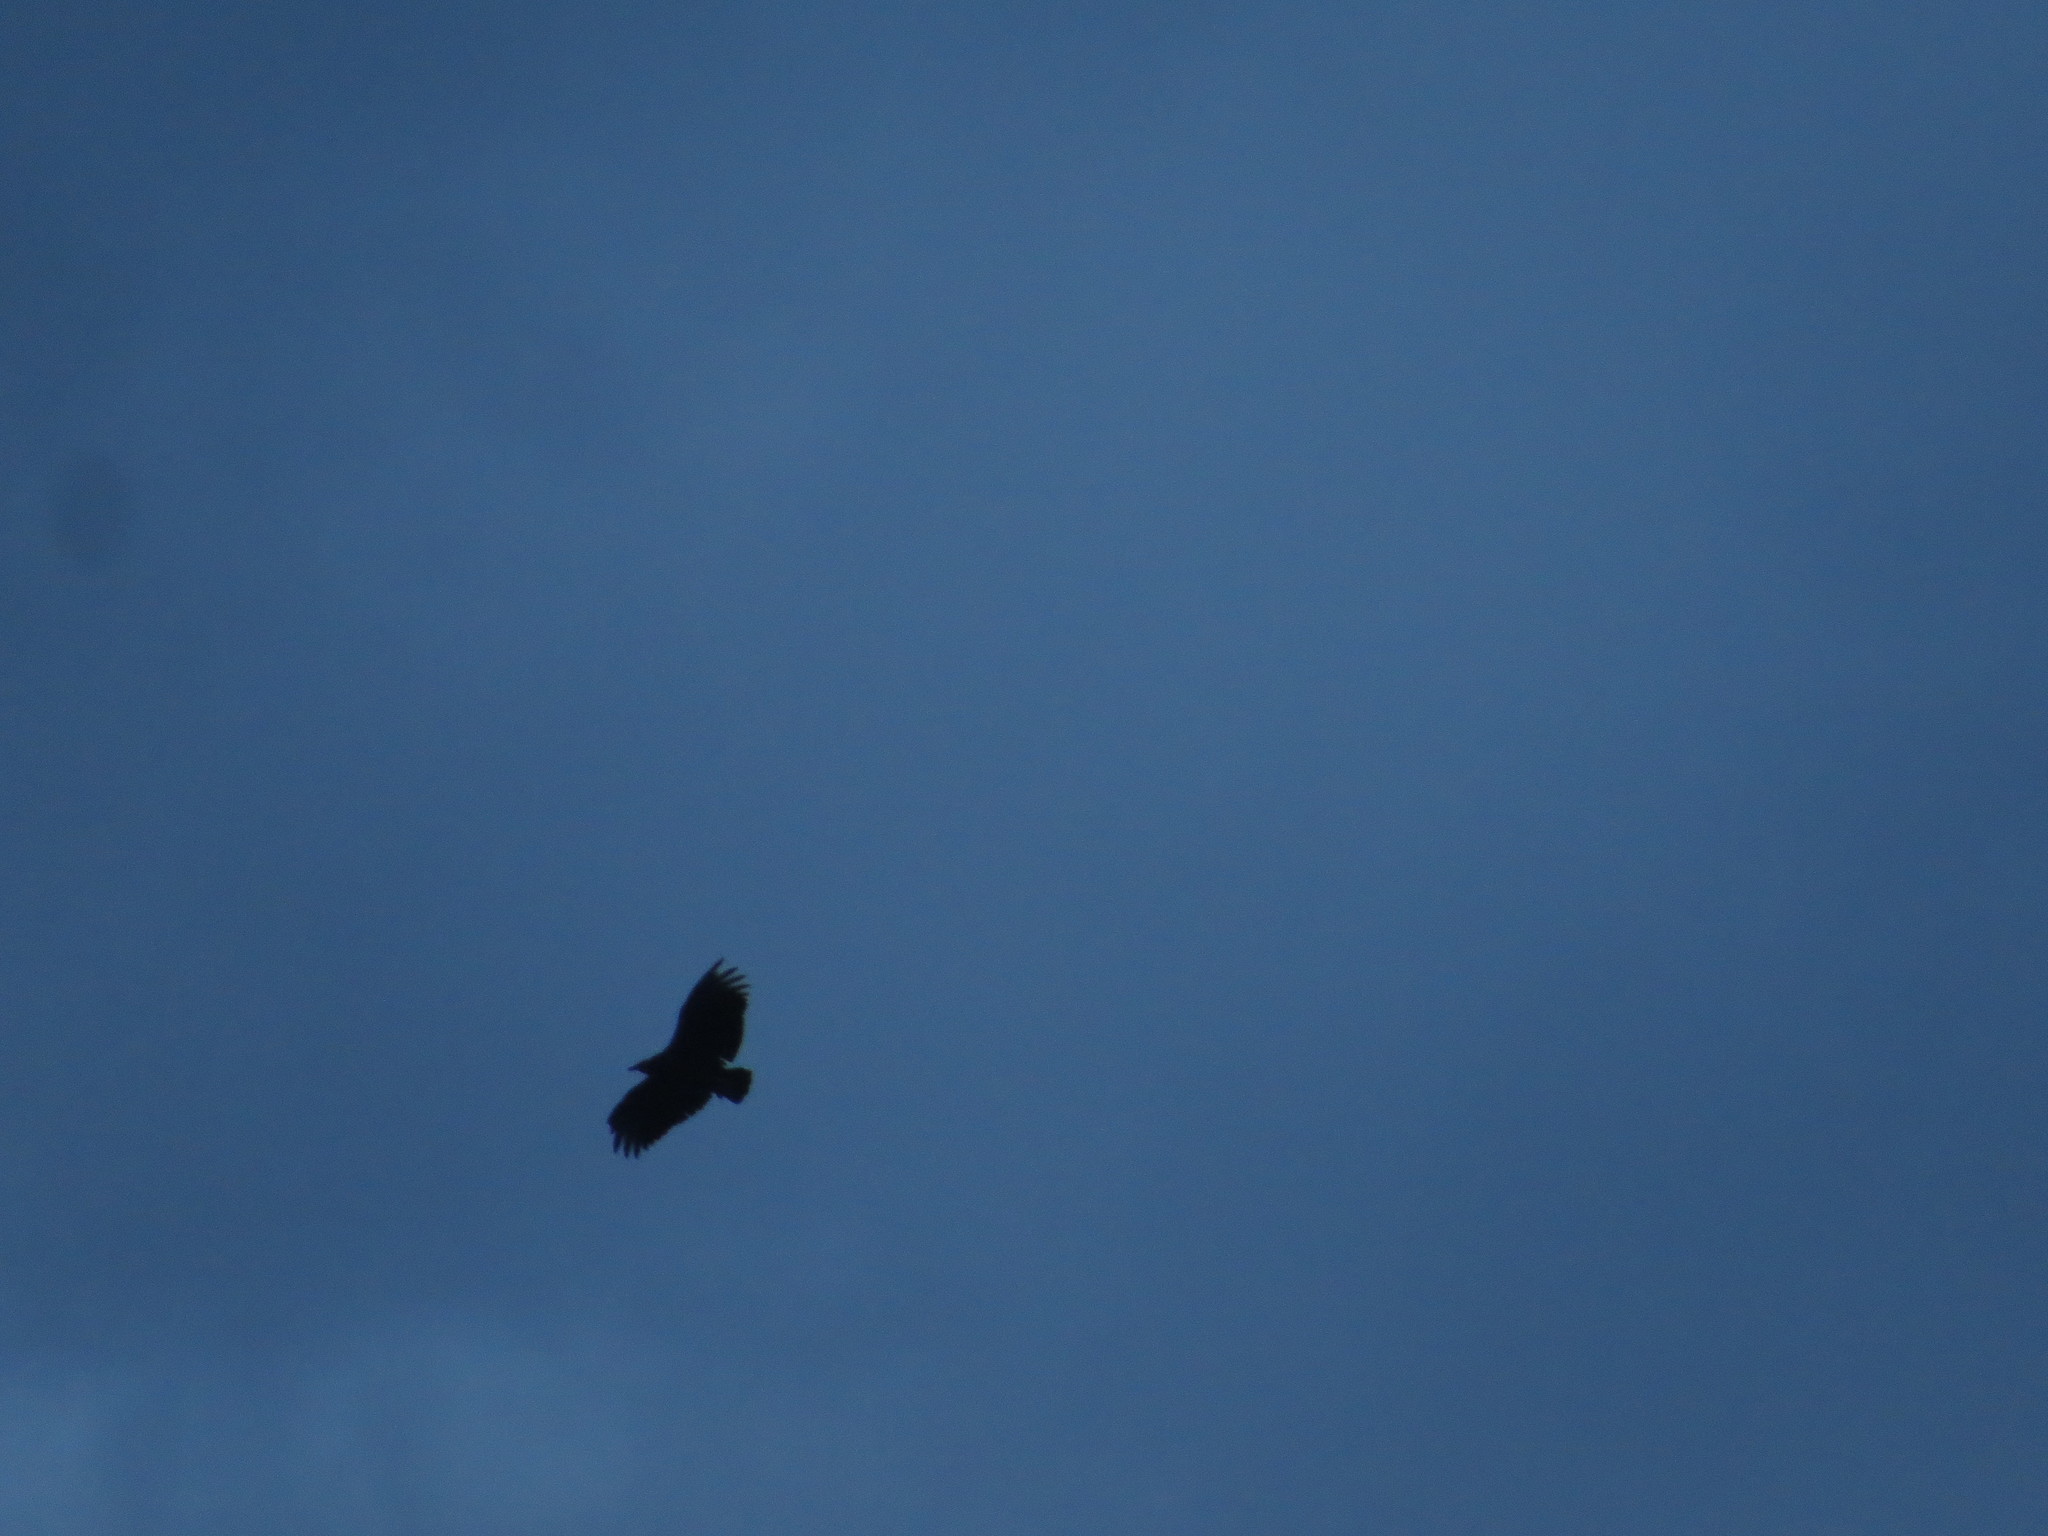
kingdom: Animalia
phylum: Chordata
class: Aves
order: Accipitriformes
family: Cathartidae
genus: Coragyps
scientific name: Coragyps atratus
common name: Black vulture
